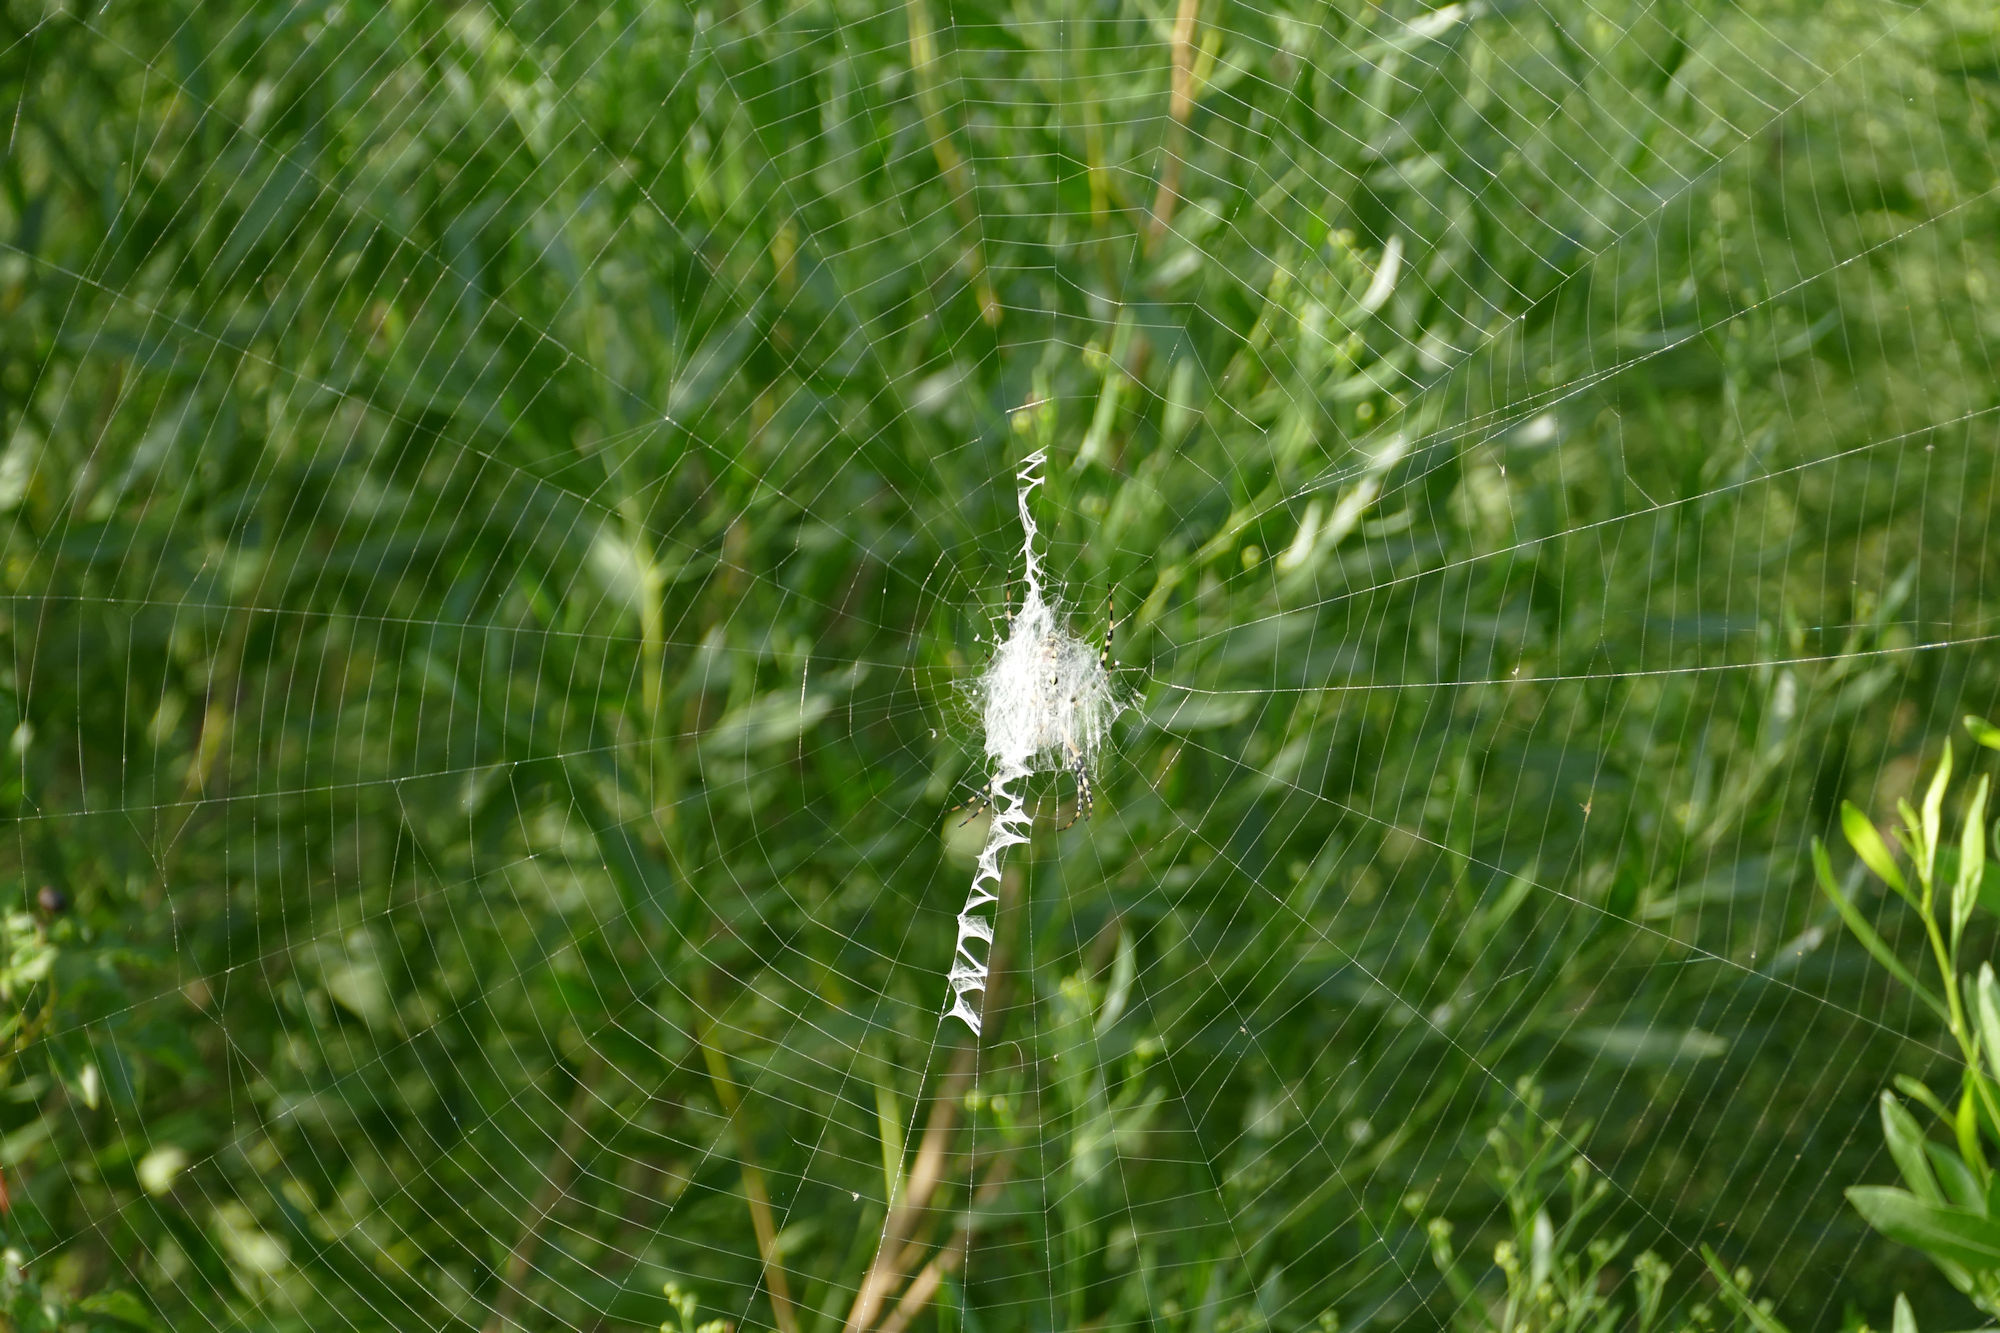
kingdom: Animalia
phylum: Arthropoda
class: Arachnida
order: Araneae
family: Araneidae
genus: Argiope
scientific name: Argiope aurantia
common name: Orb weavers
